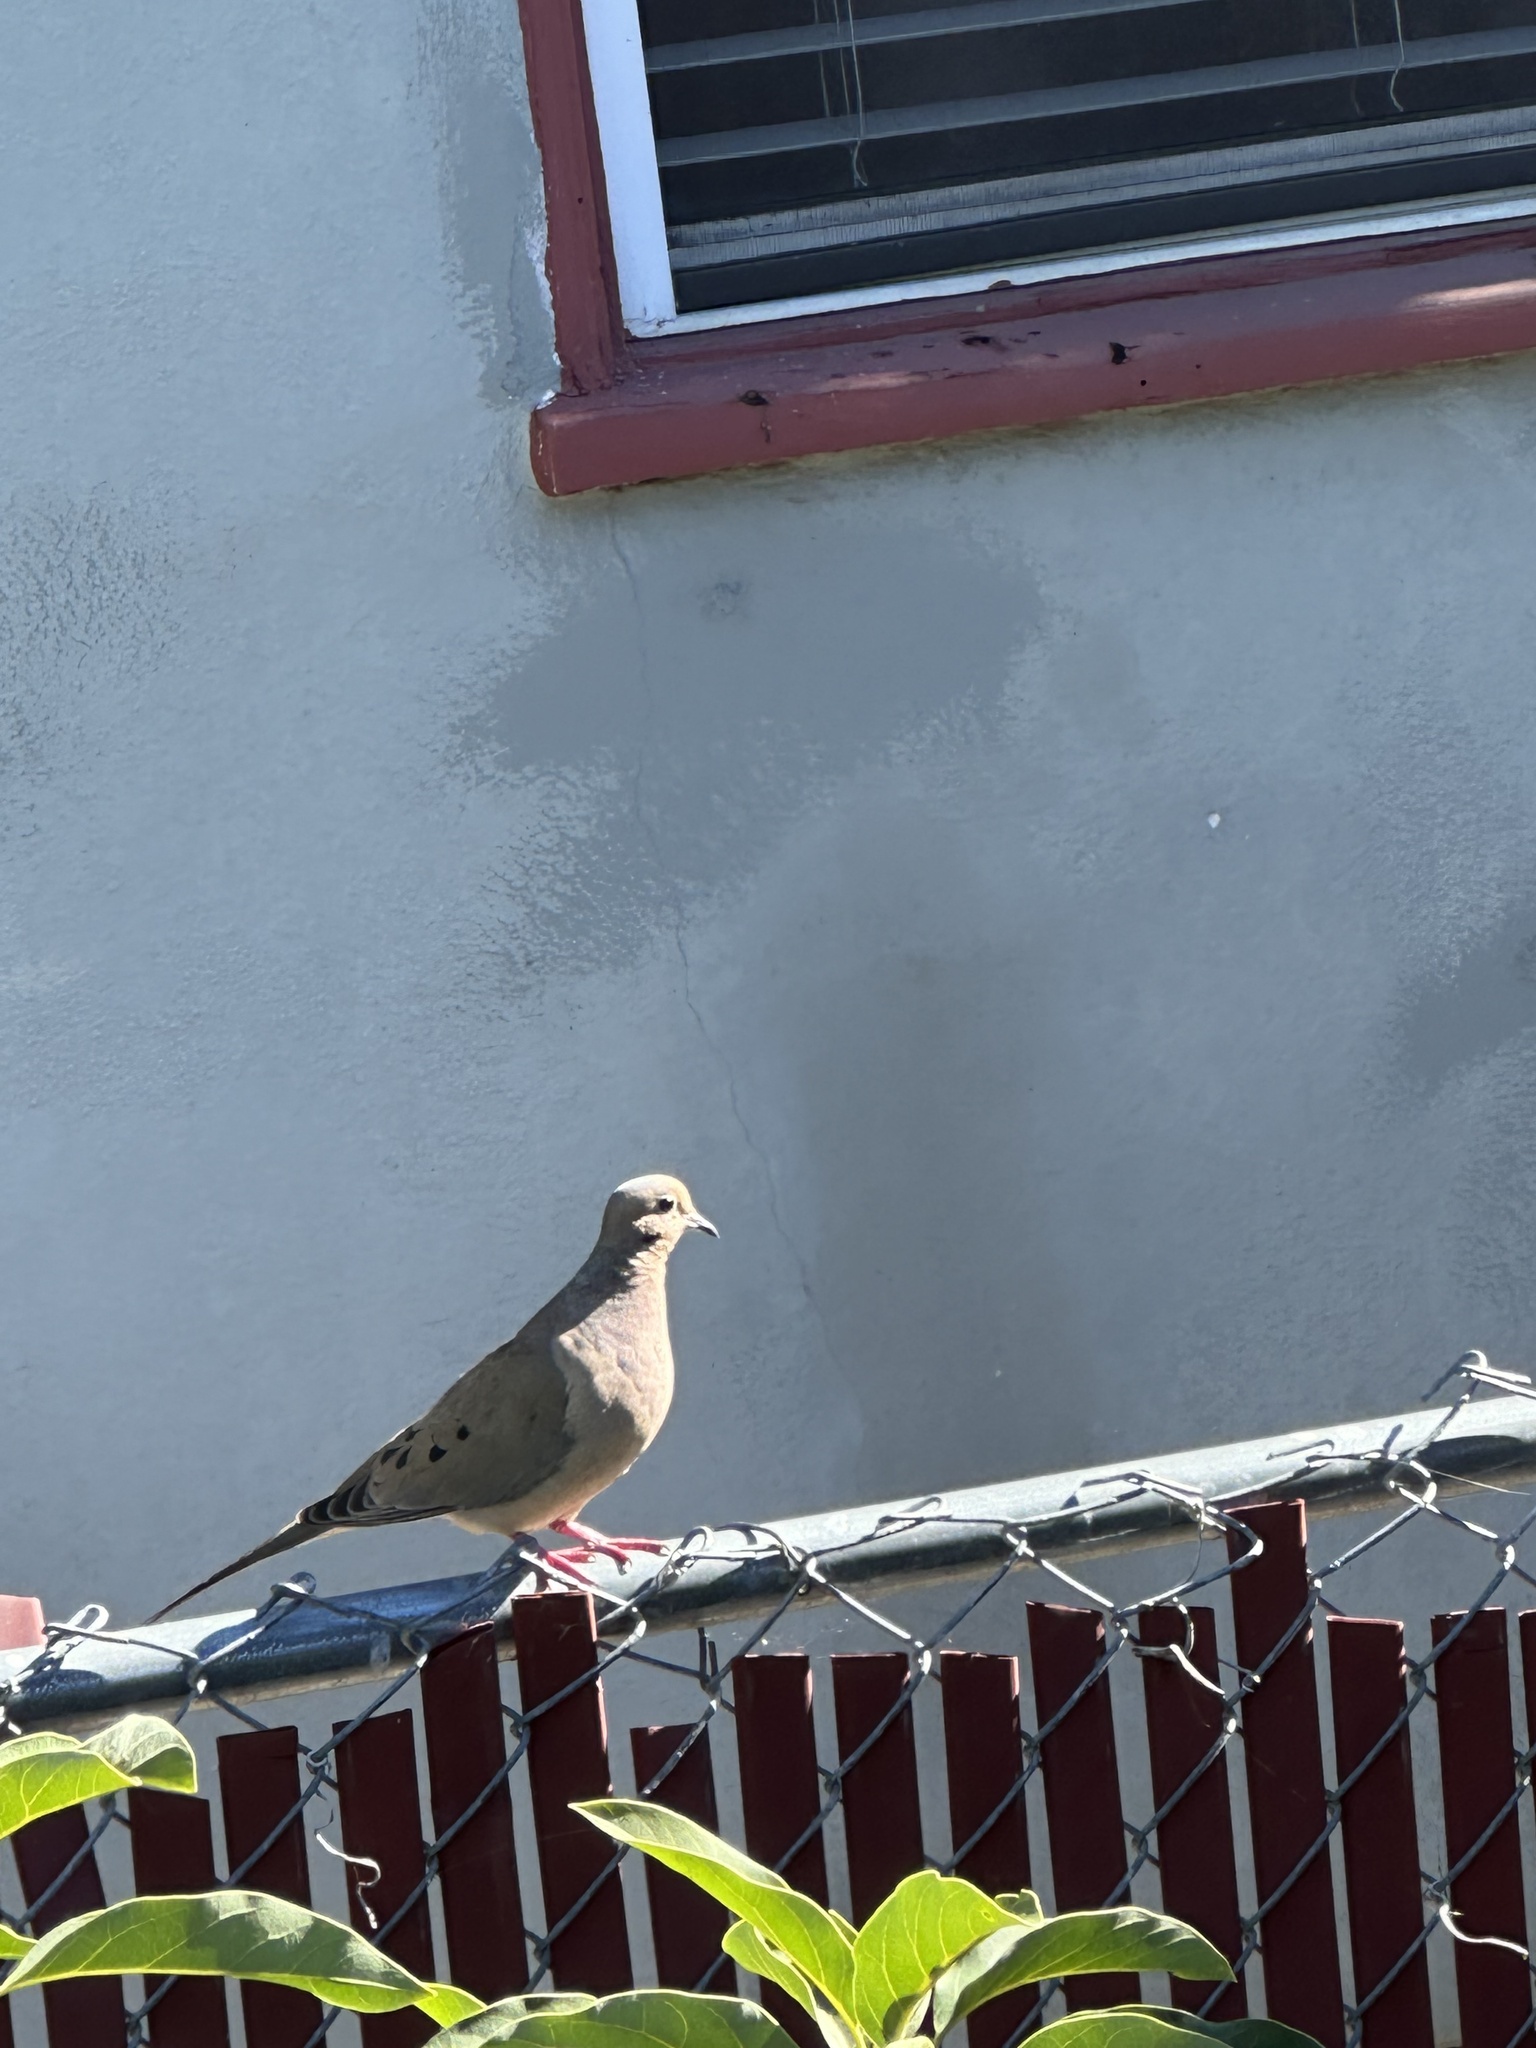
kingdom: Animalia
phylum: Chordata
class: Aves
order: Columbiformes
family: Columbidae
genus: Zenaida
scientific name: Zenaida macroura
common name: Mourning dove
